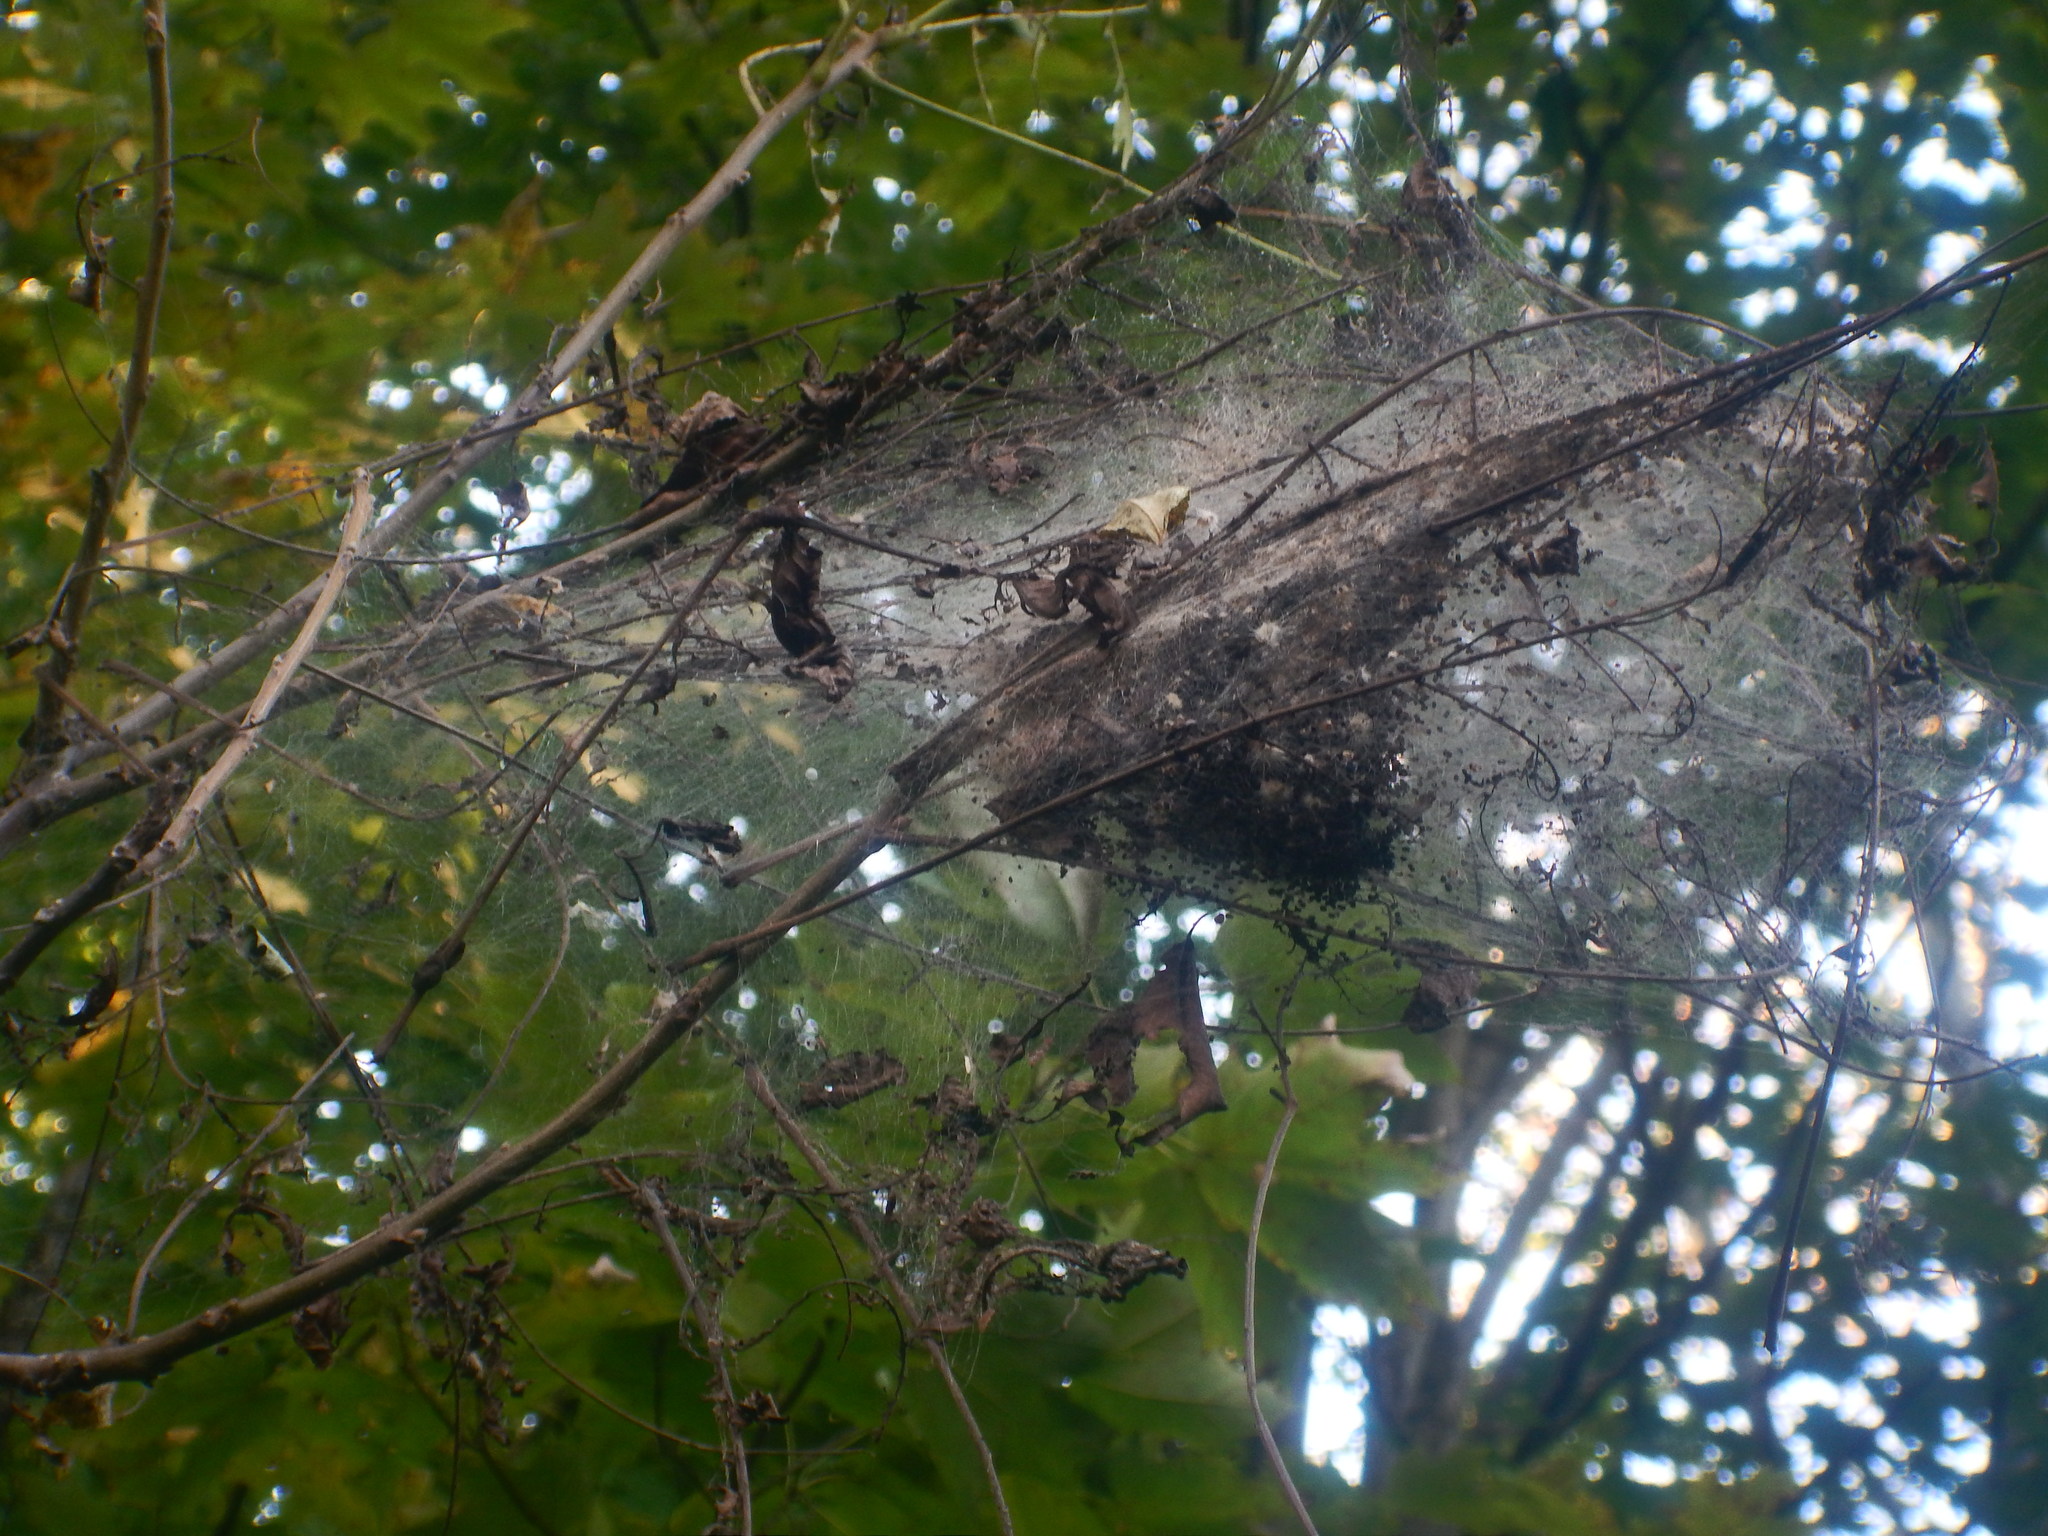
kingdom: Animalia
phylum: Arthropoda
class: Insecta
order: Lepidoptera
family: Erebidae
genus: Hyphantria
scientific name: Hyphantria cunea
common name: American white moth
